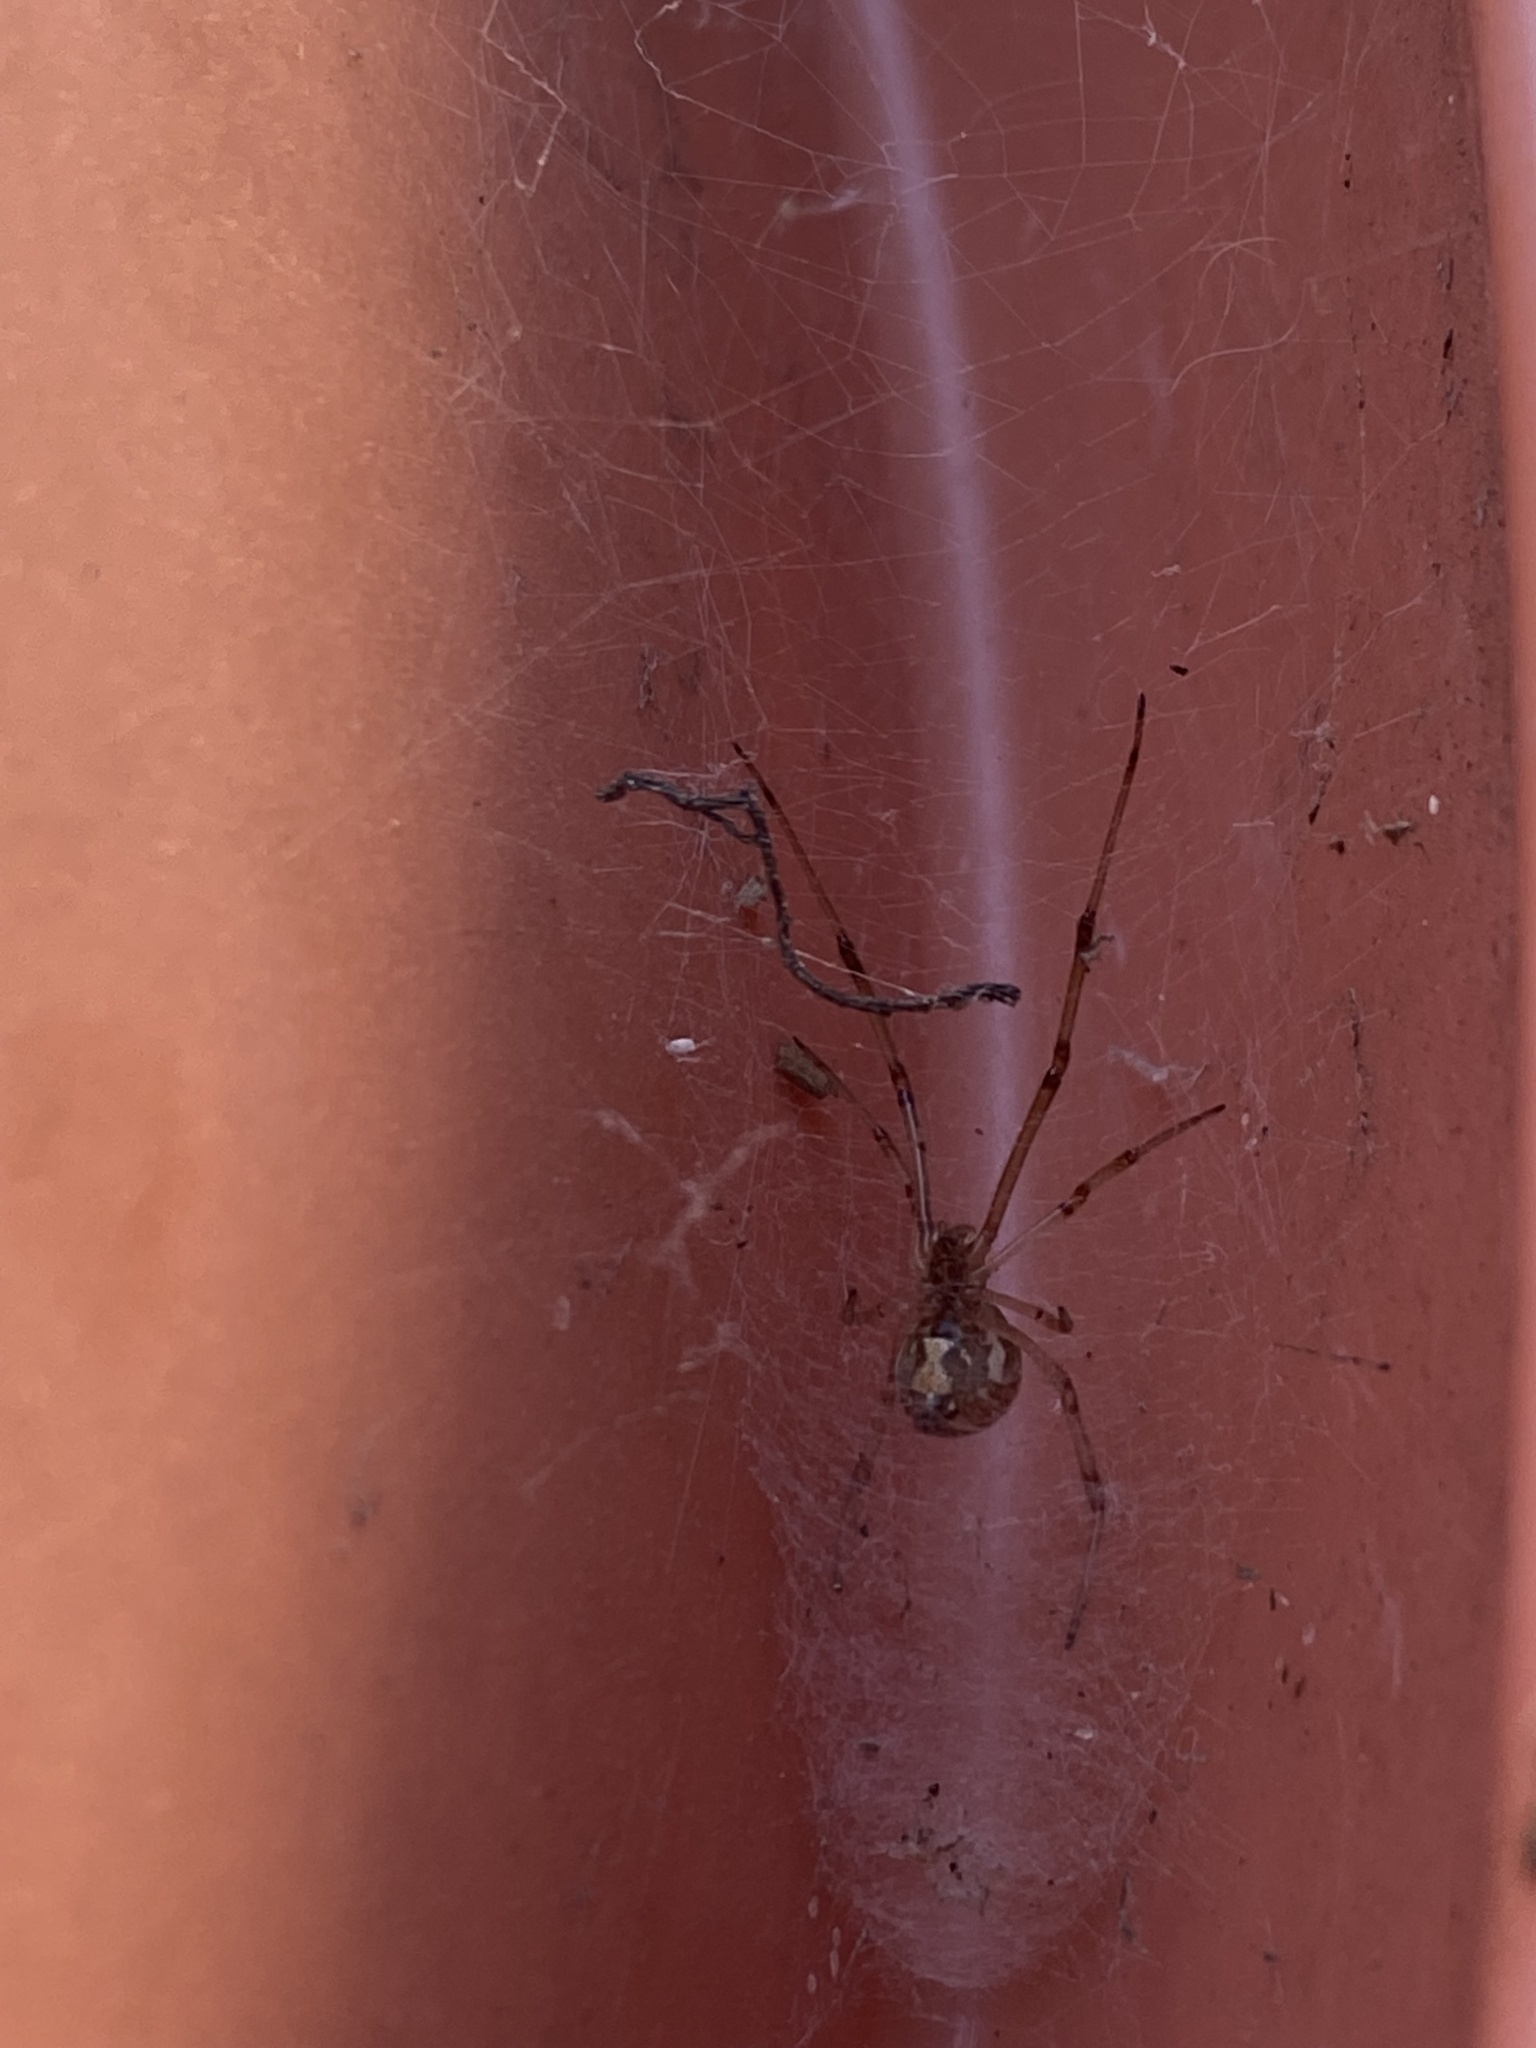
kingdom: Animalia
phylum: Arthropoda
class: Arachnida
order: Araneae
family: Theridiidae
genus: Latrodectus
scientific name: Latrodectus geometricus
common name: Brown widow spider
